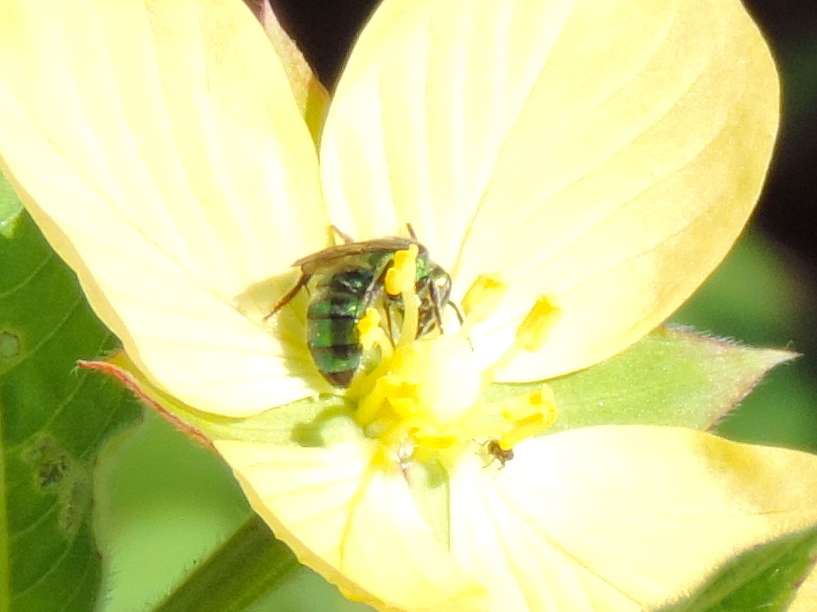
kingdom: Animalia
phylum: Arthropoda
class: Insecta
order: Hymenoptera
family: Halictidae
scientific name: Halictidae
